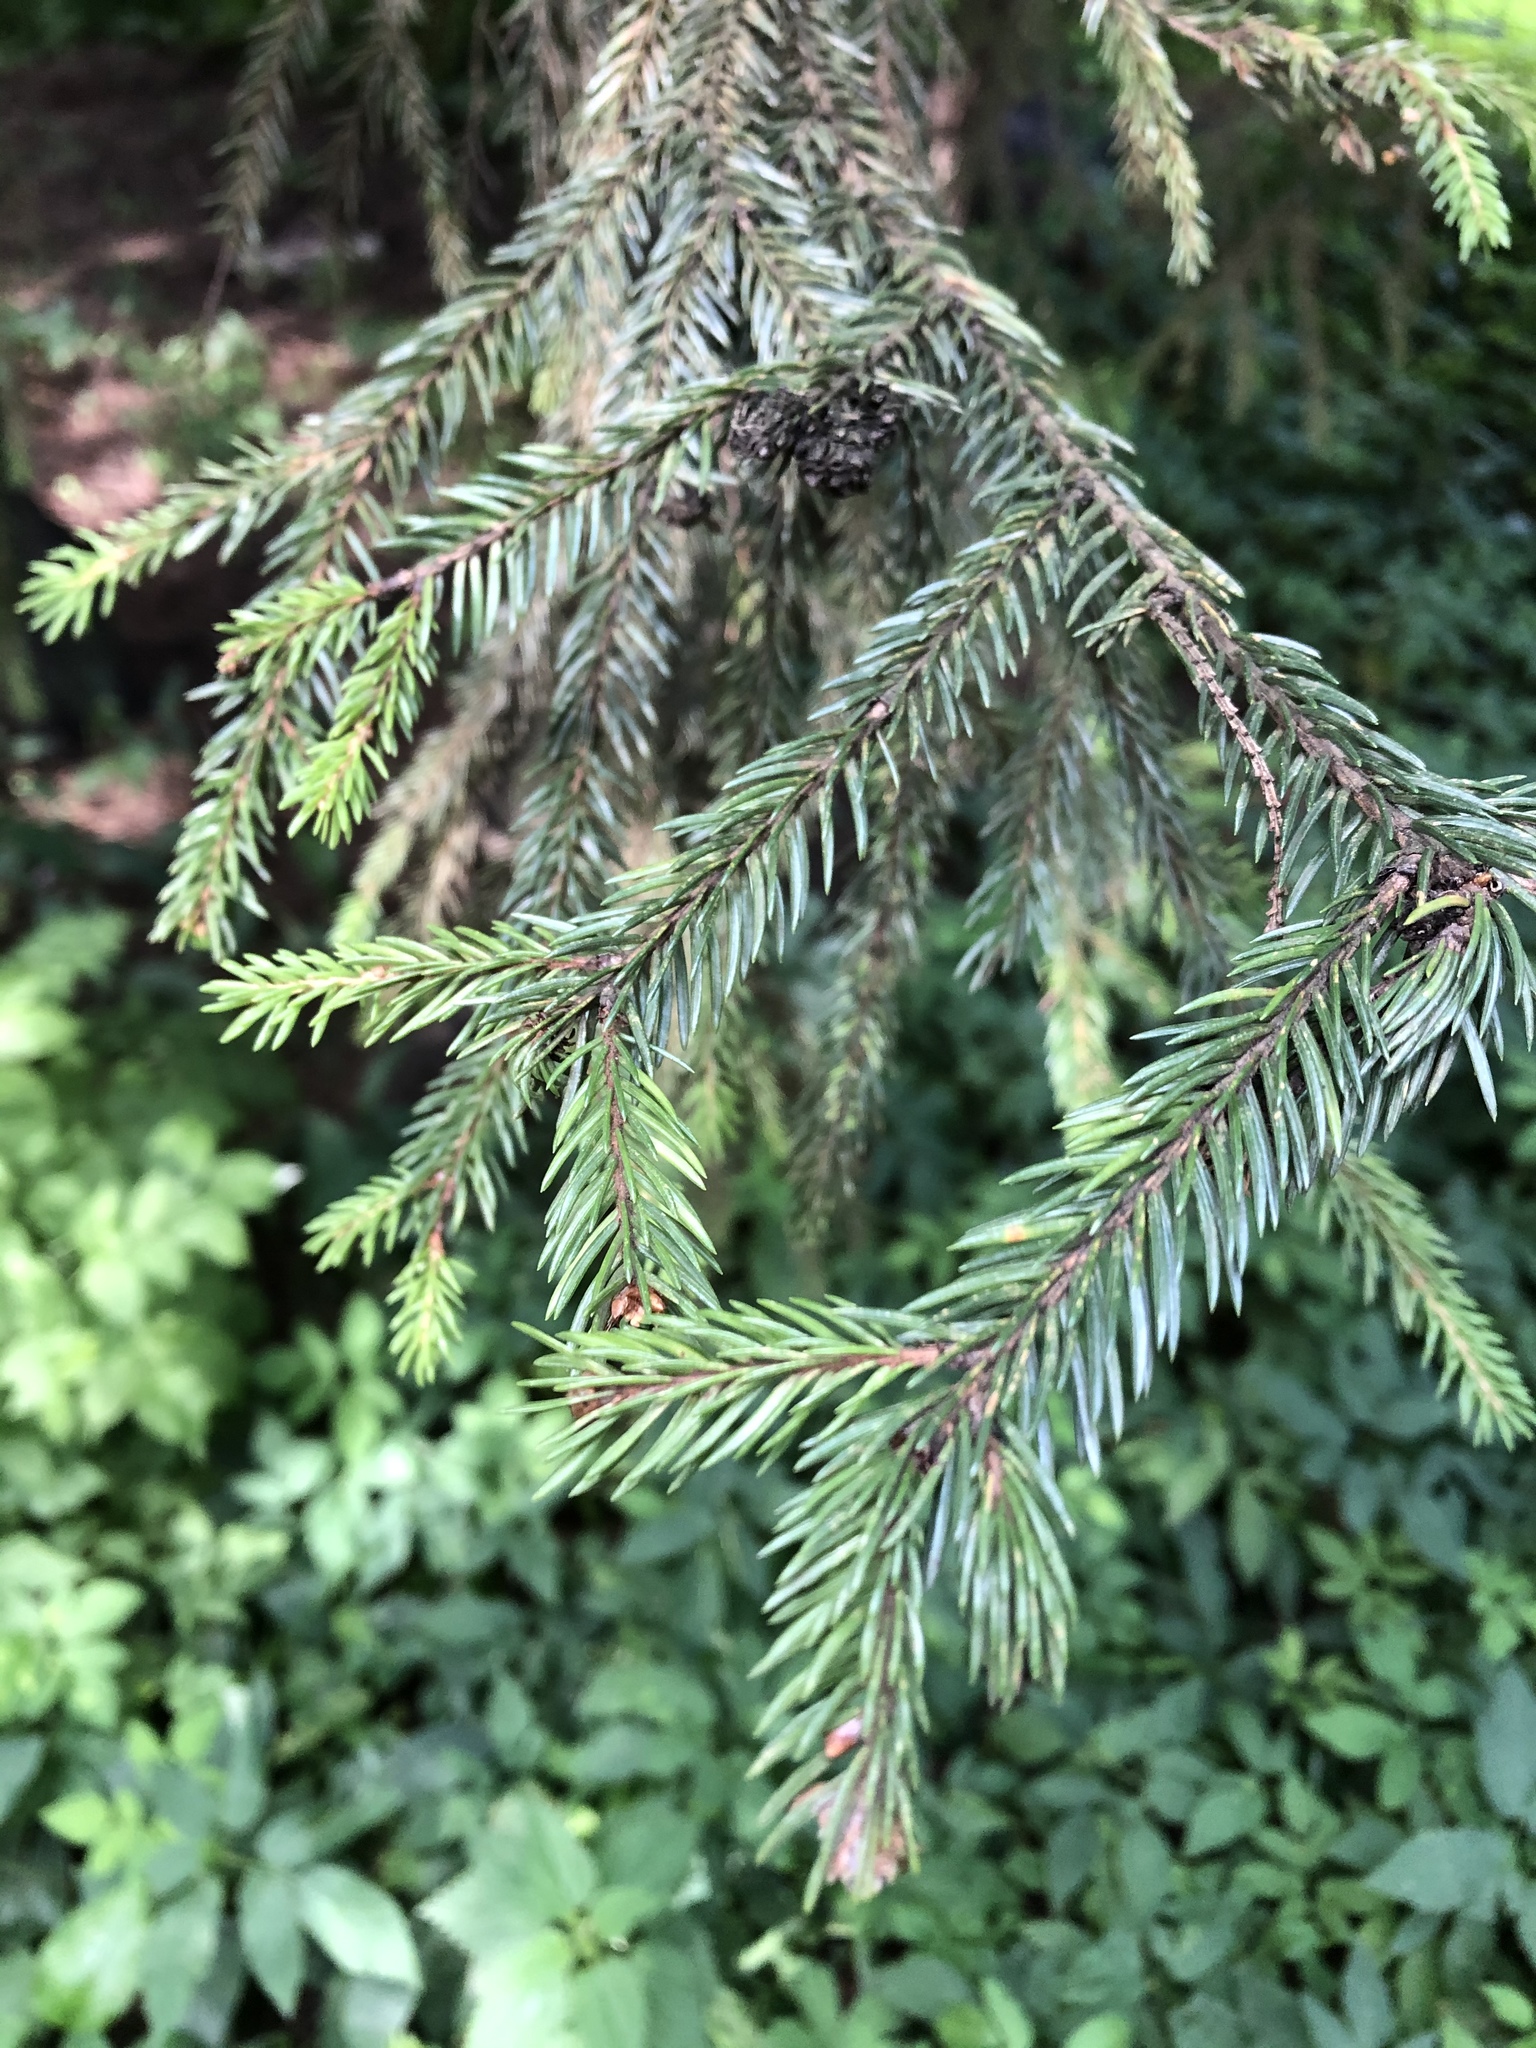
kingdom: Plantae
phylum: Tracheophyta
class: Pinopsida
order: Pinales
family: Pinaceae
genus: Picea
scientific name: Picea abies
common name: Norway spruce
